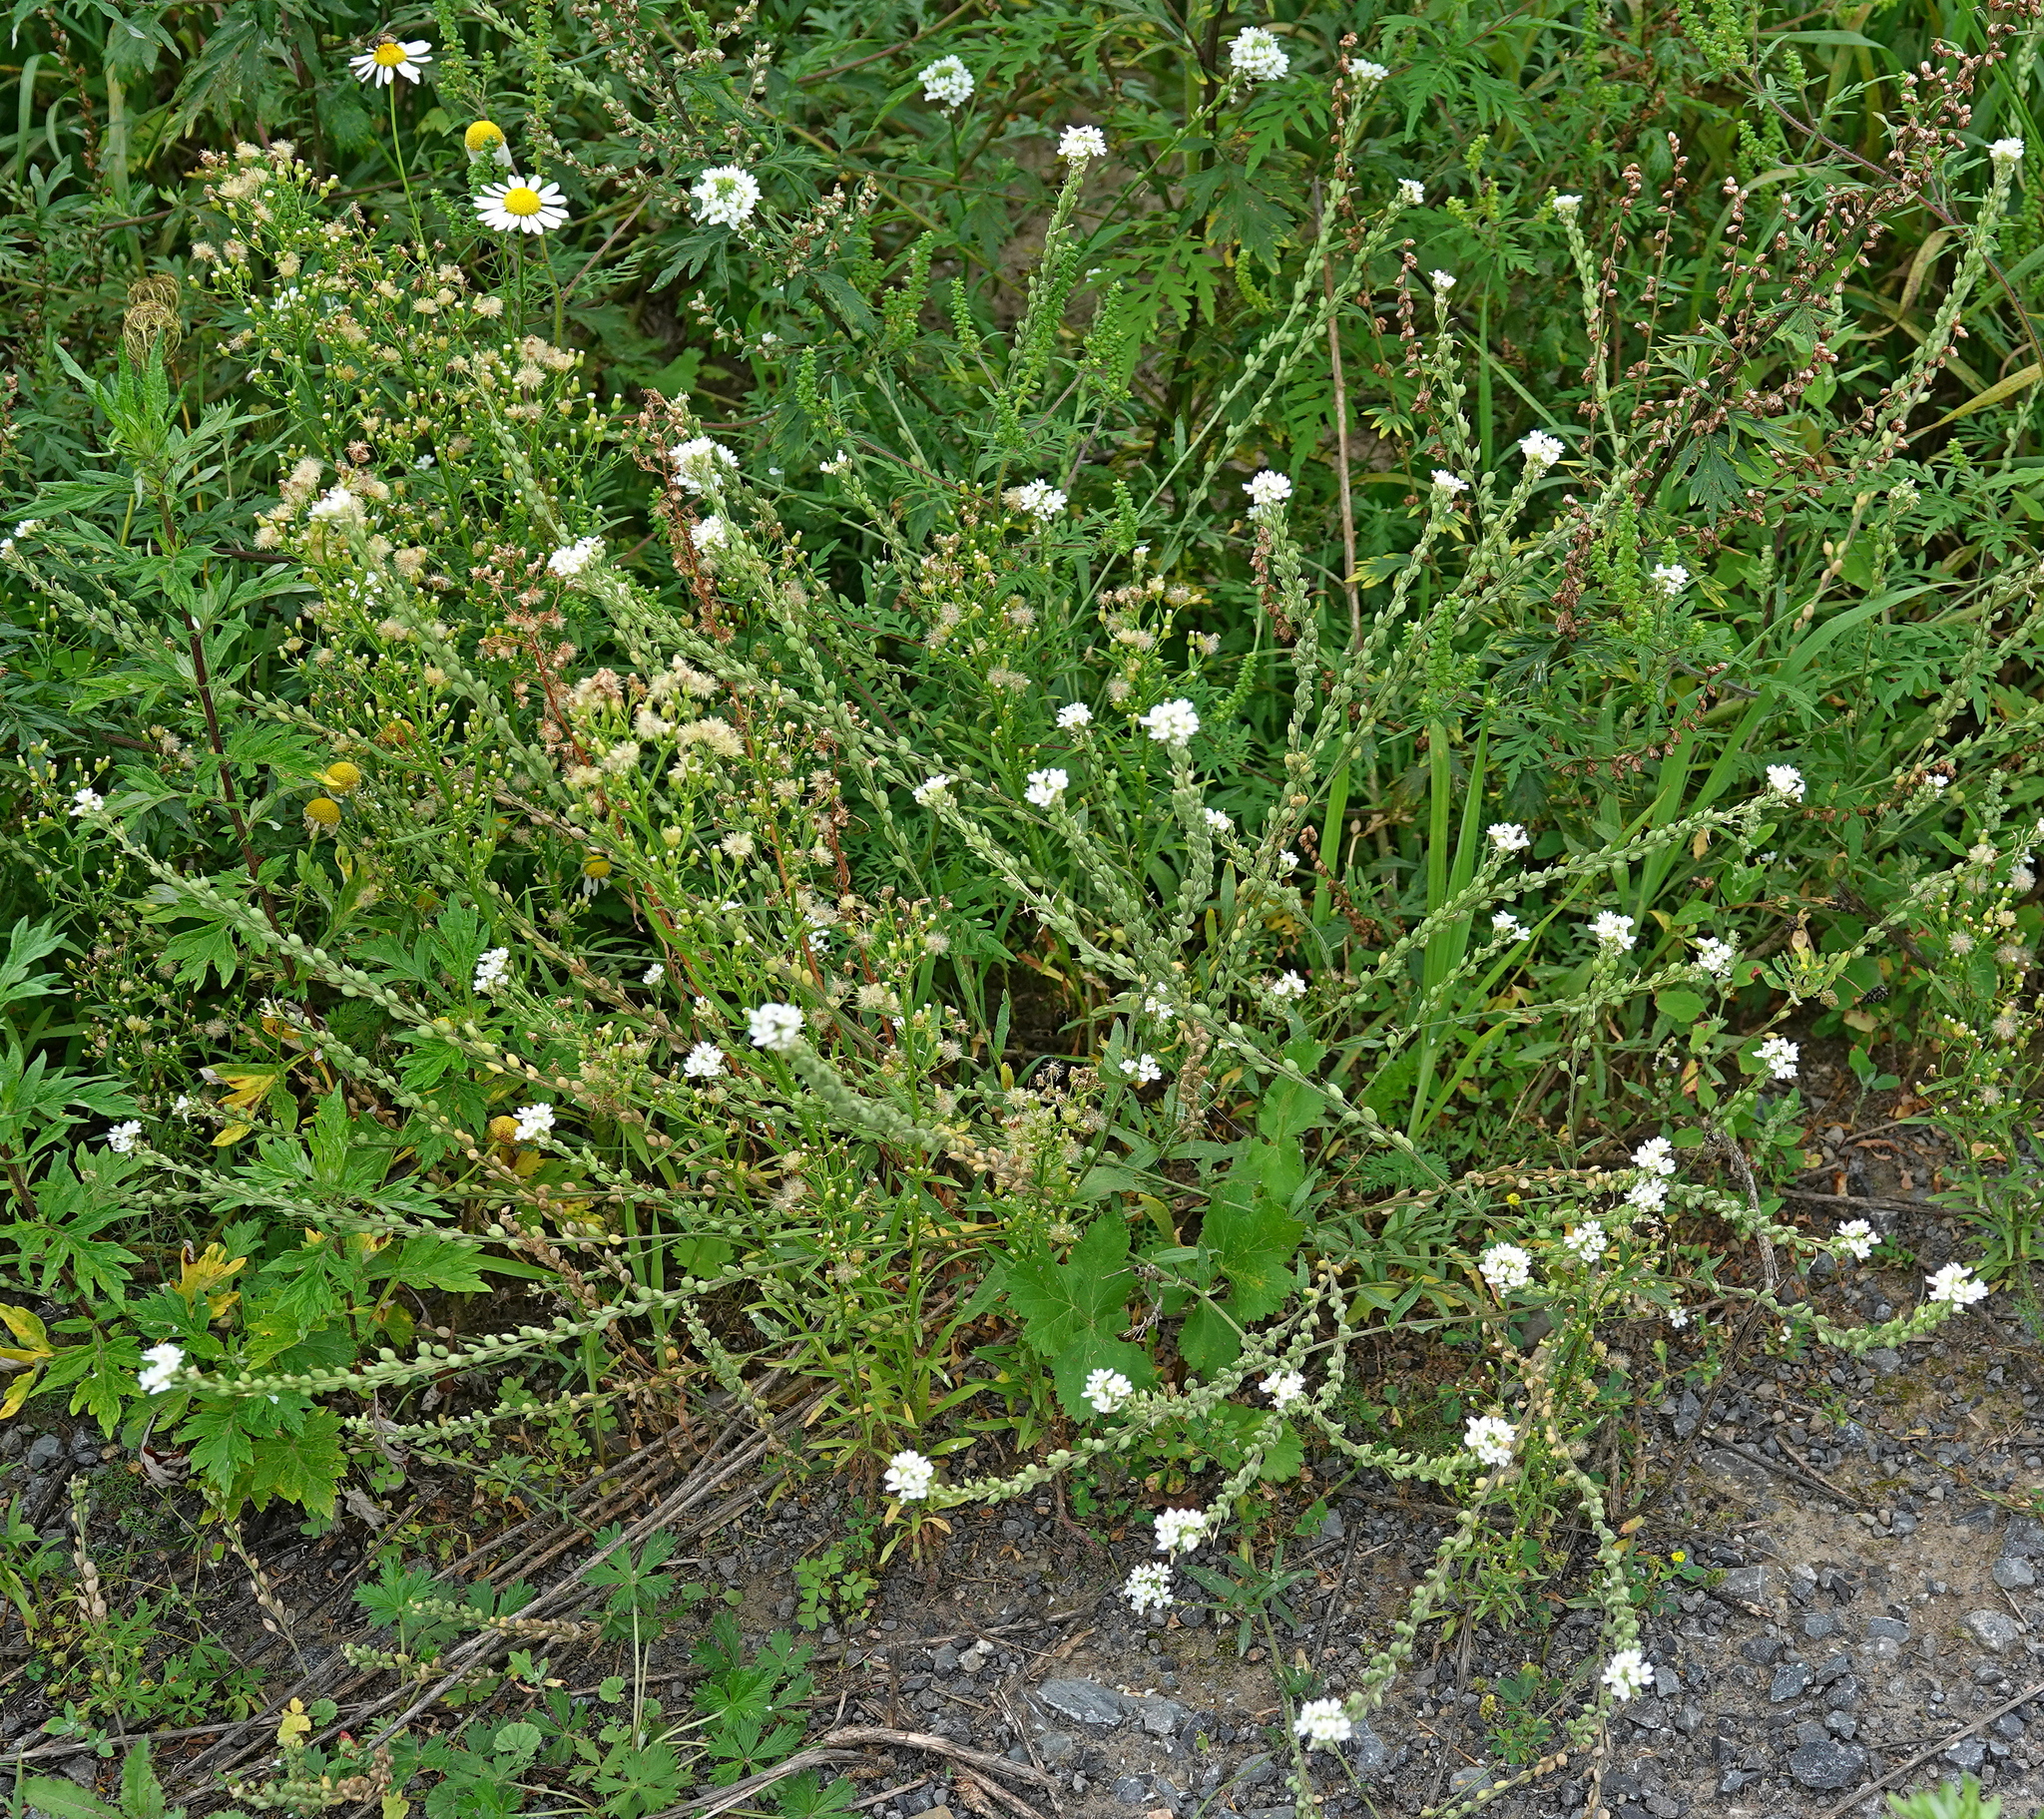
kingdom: Plantae
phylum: Tracheophyta
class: Magnoliopsida
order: Brassicales
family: Brassicaceae
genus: Berteroa
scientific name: Berteroa incana
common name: Hoary alison
